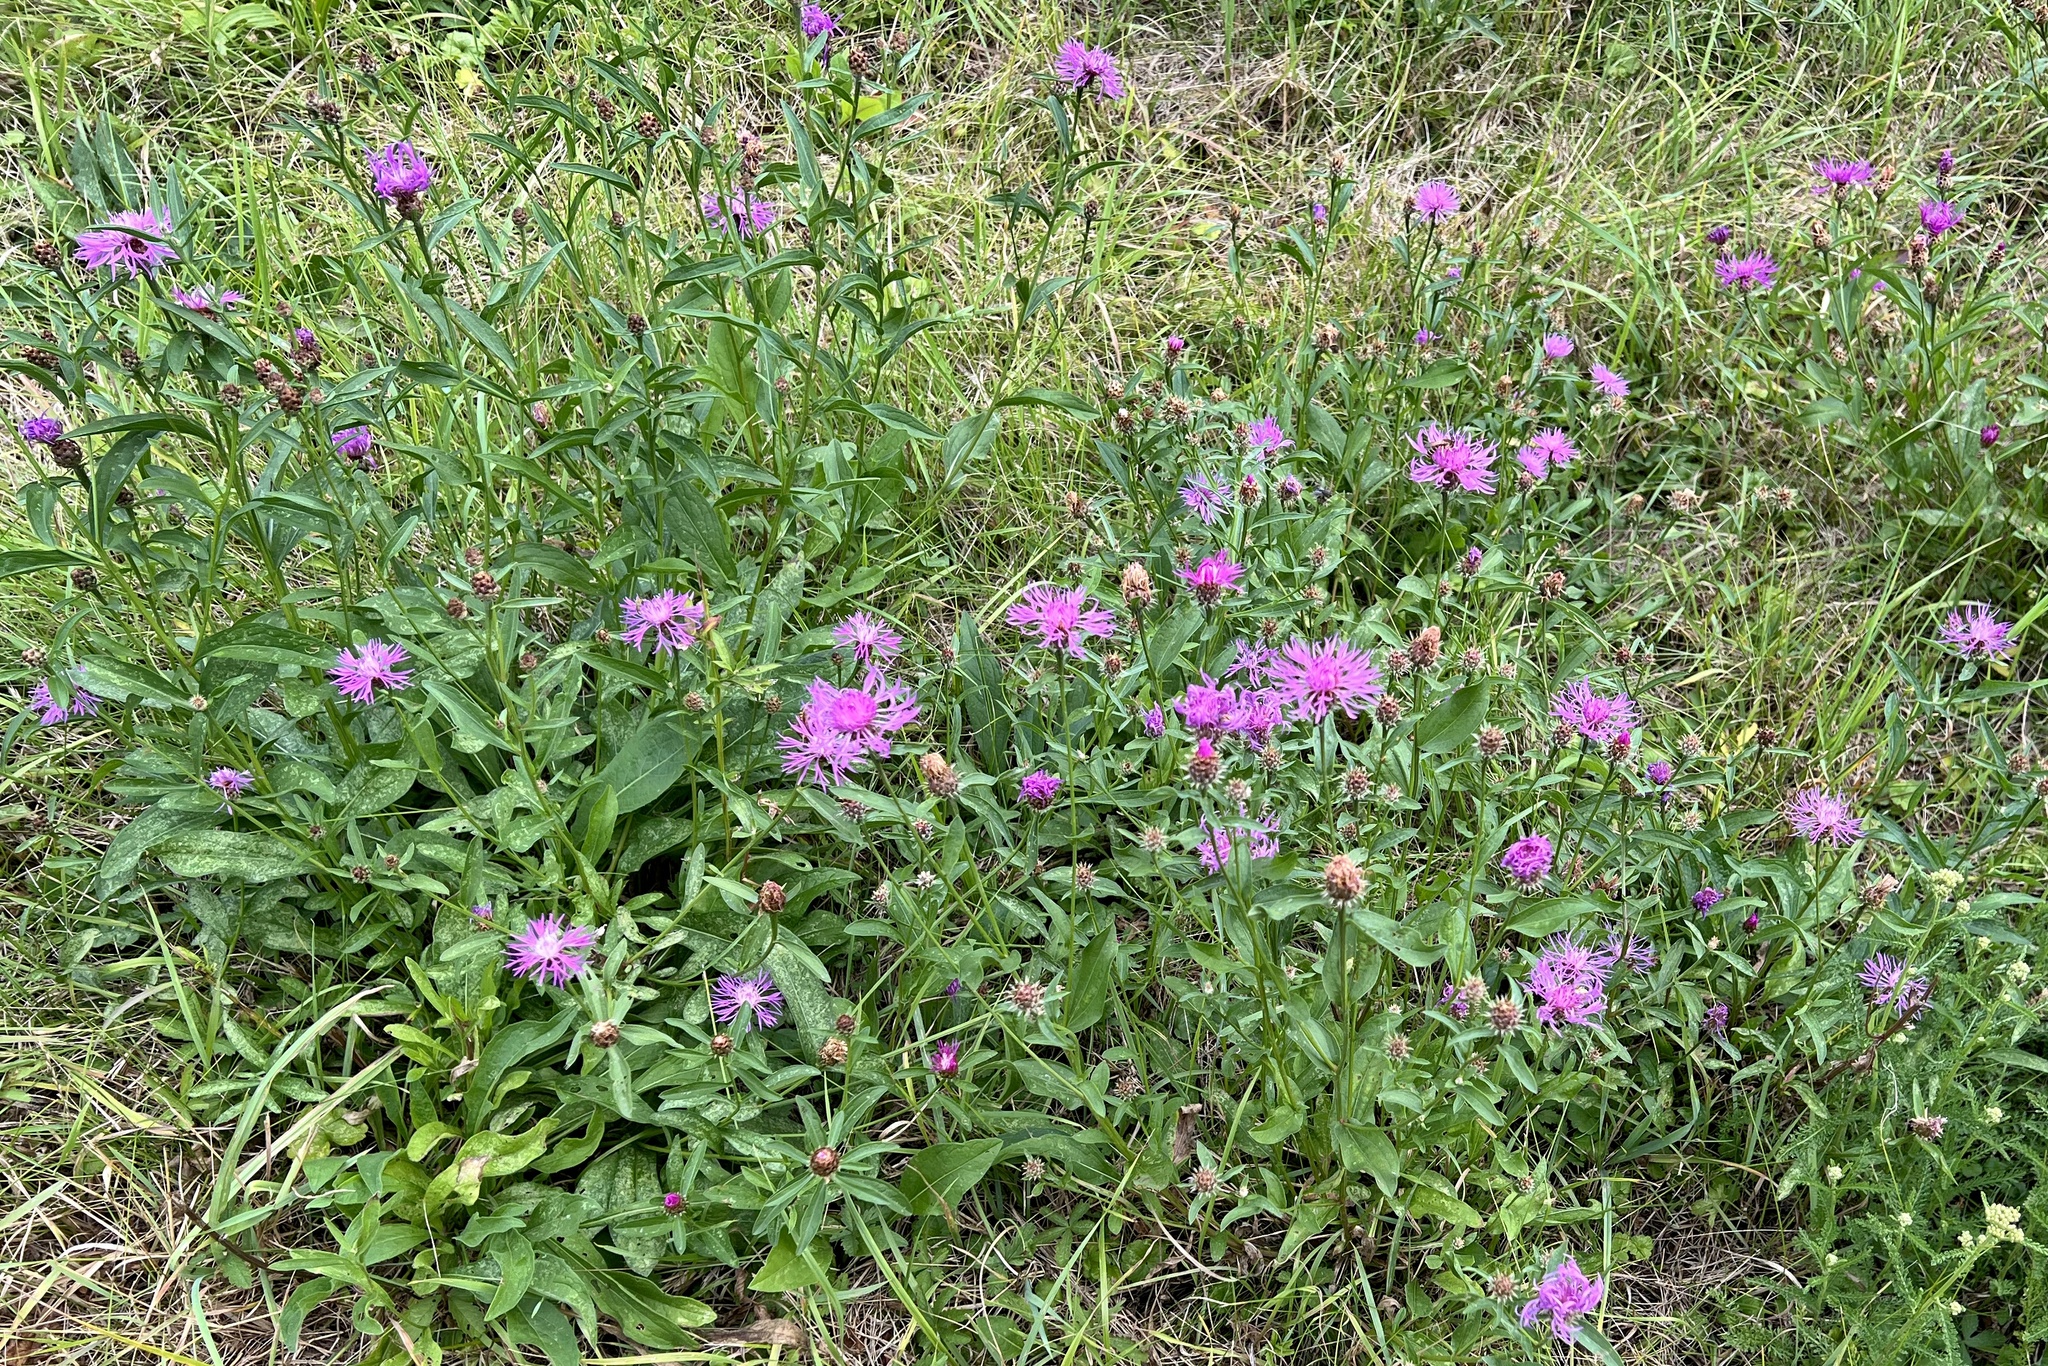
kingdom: Plantae
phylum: Tracheophyta
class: Magnoliopsida
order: Asterales
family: Asteraceae
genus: Centaurea
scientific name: Centaurea oxylepis
